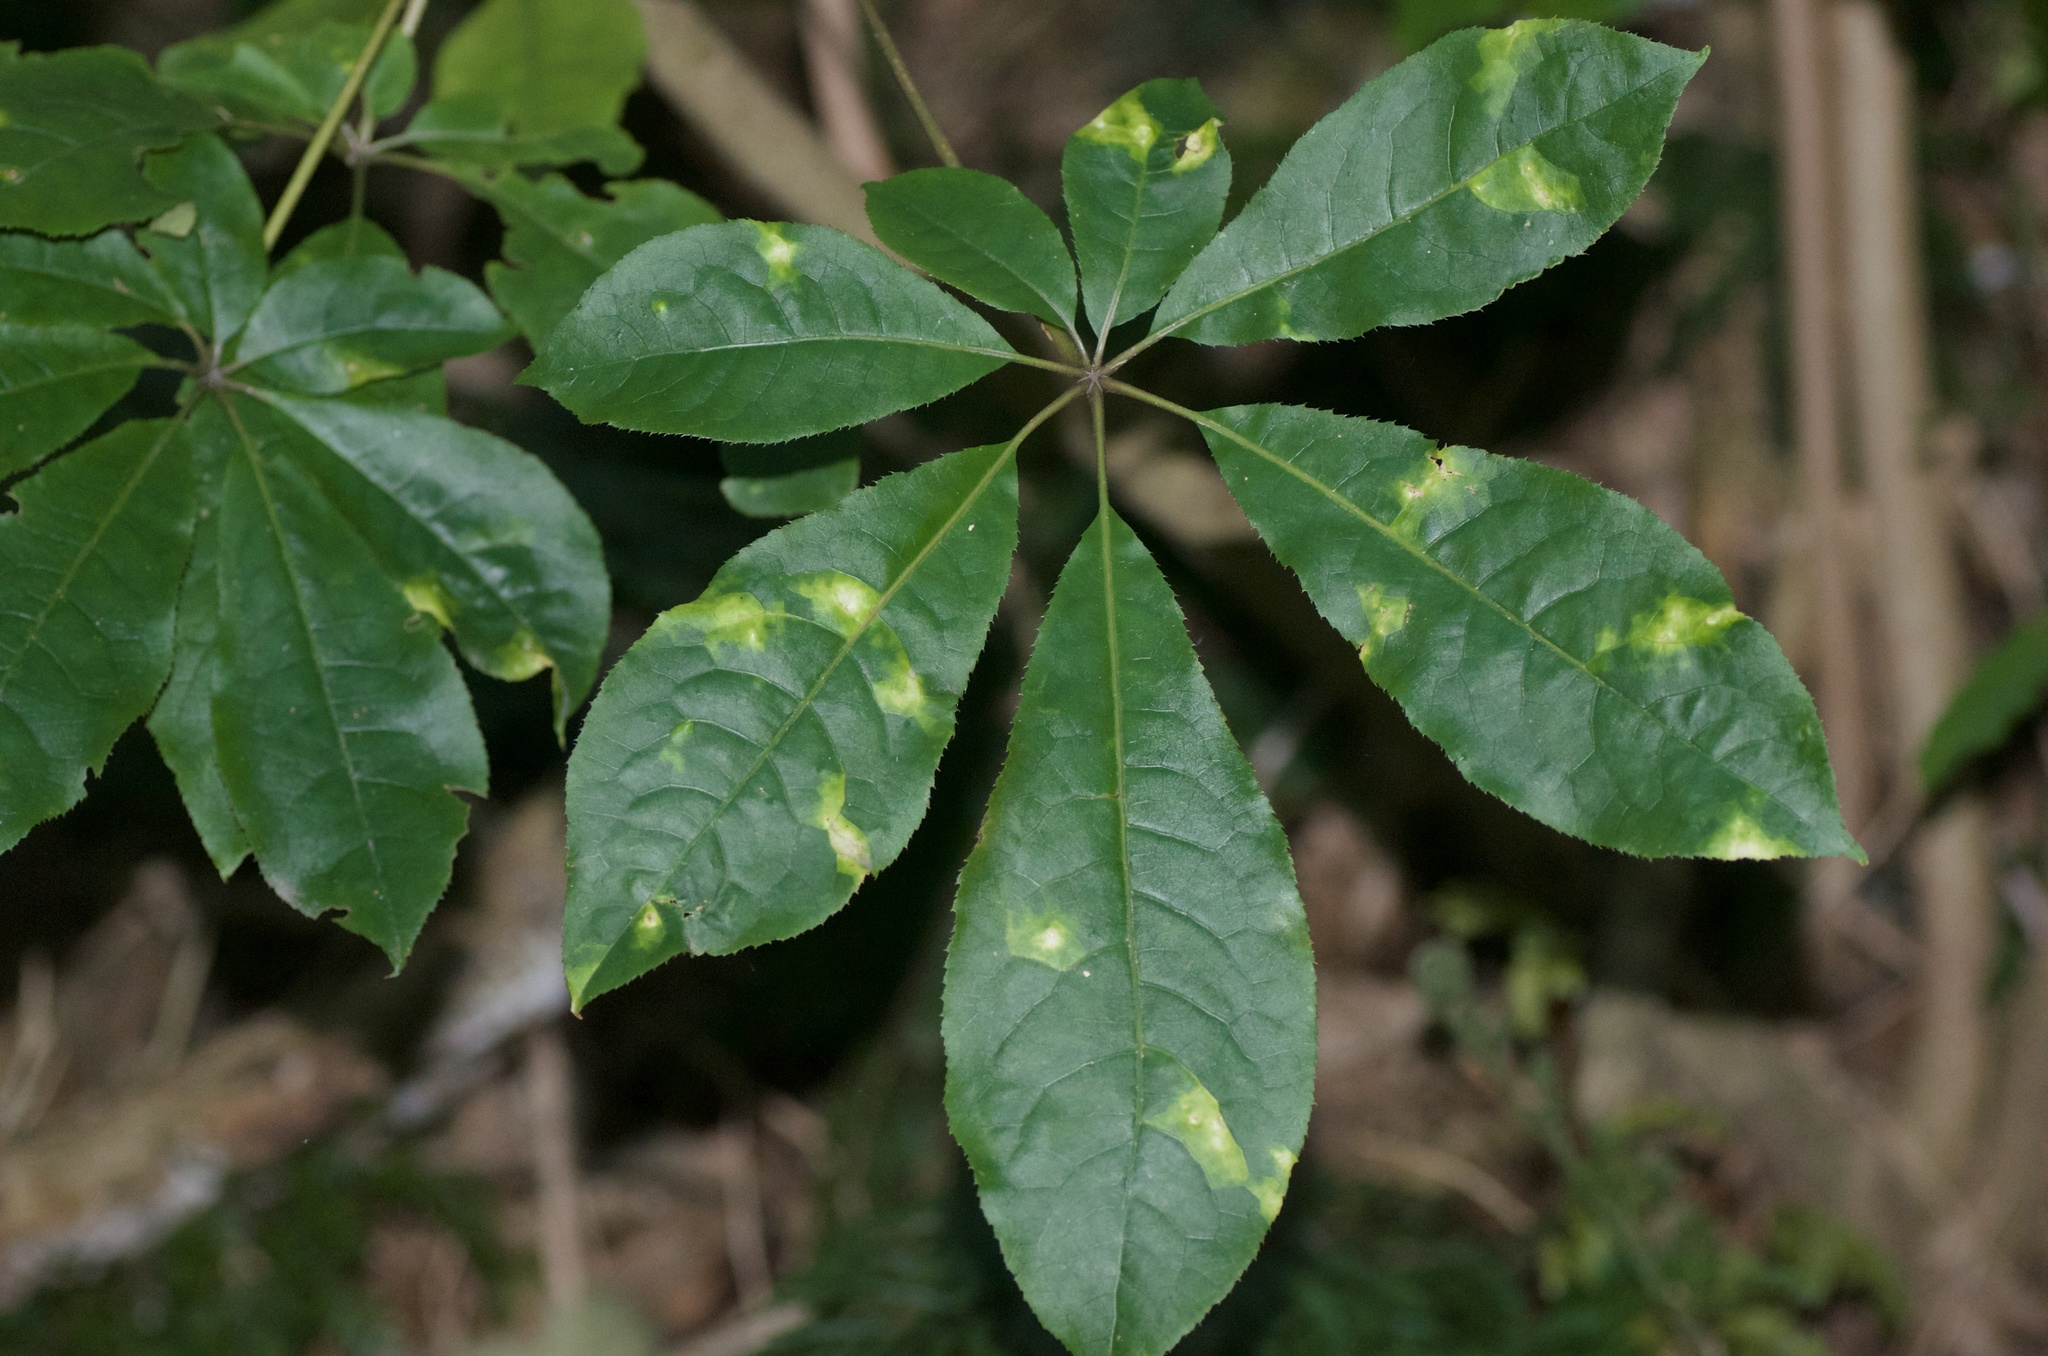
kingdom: Plantae
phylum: Tracheophyta
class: Magnoliopsida
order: Apiales
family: Araliaceae
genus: Schefflera
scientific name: Schefflera digitata
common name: Pate
